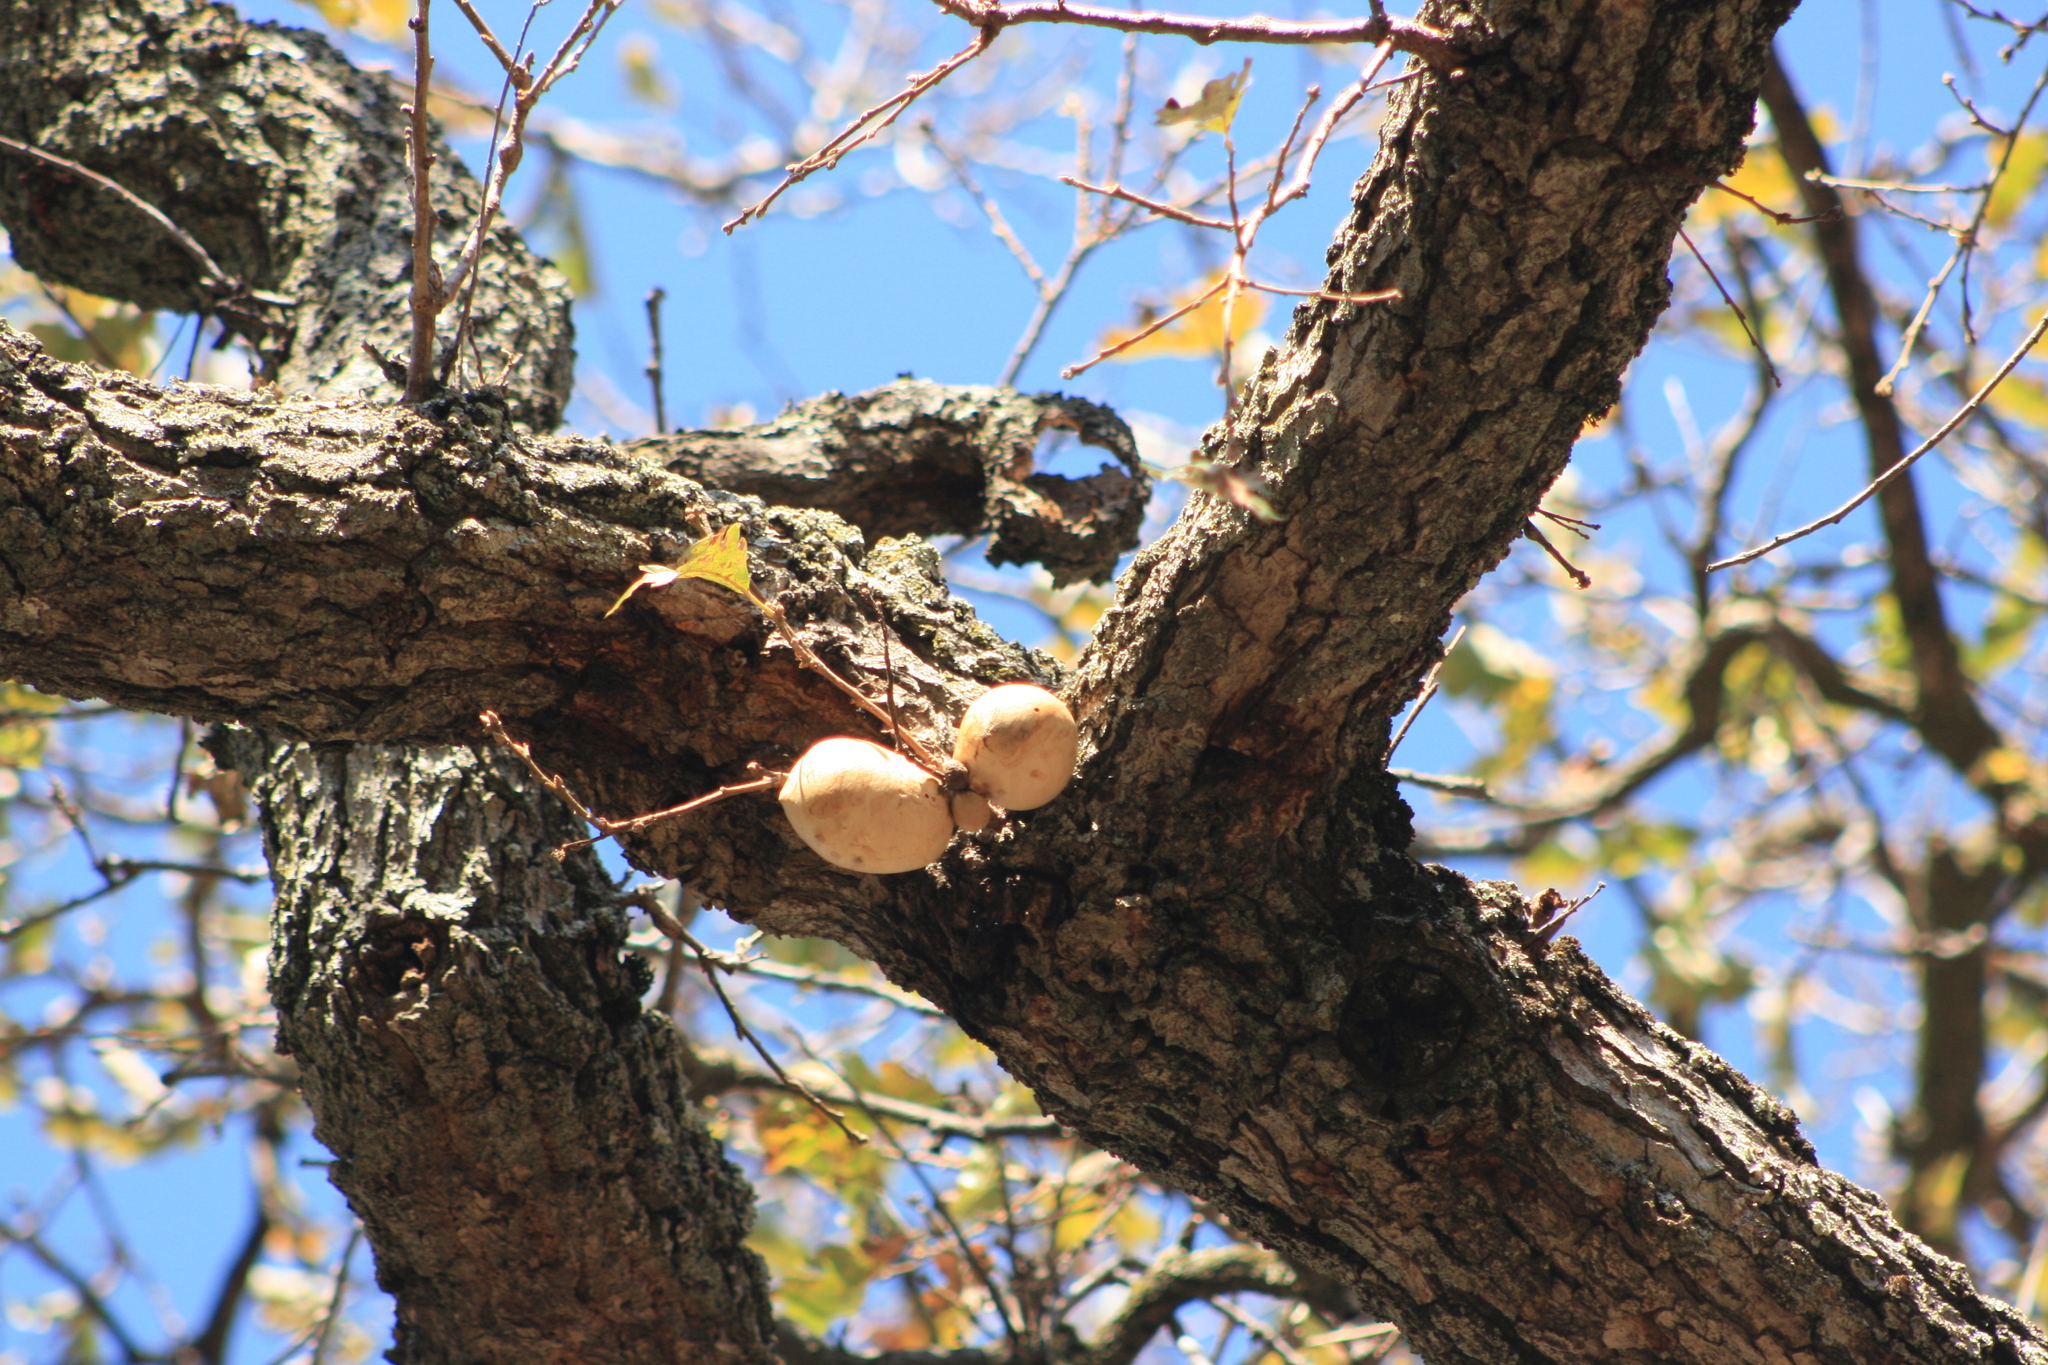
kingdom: Animalia
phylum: Arthropoda
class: Insecta
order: Hymenoptera
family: Cynipidae
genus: Andricus
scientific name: Andricus quercuscalifornicus
